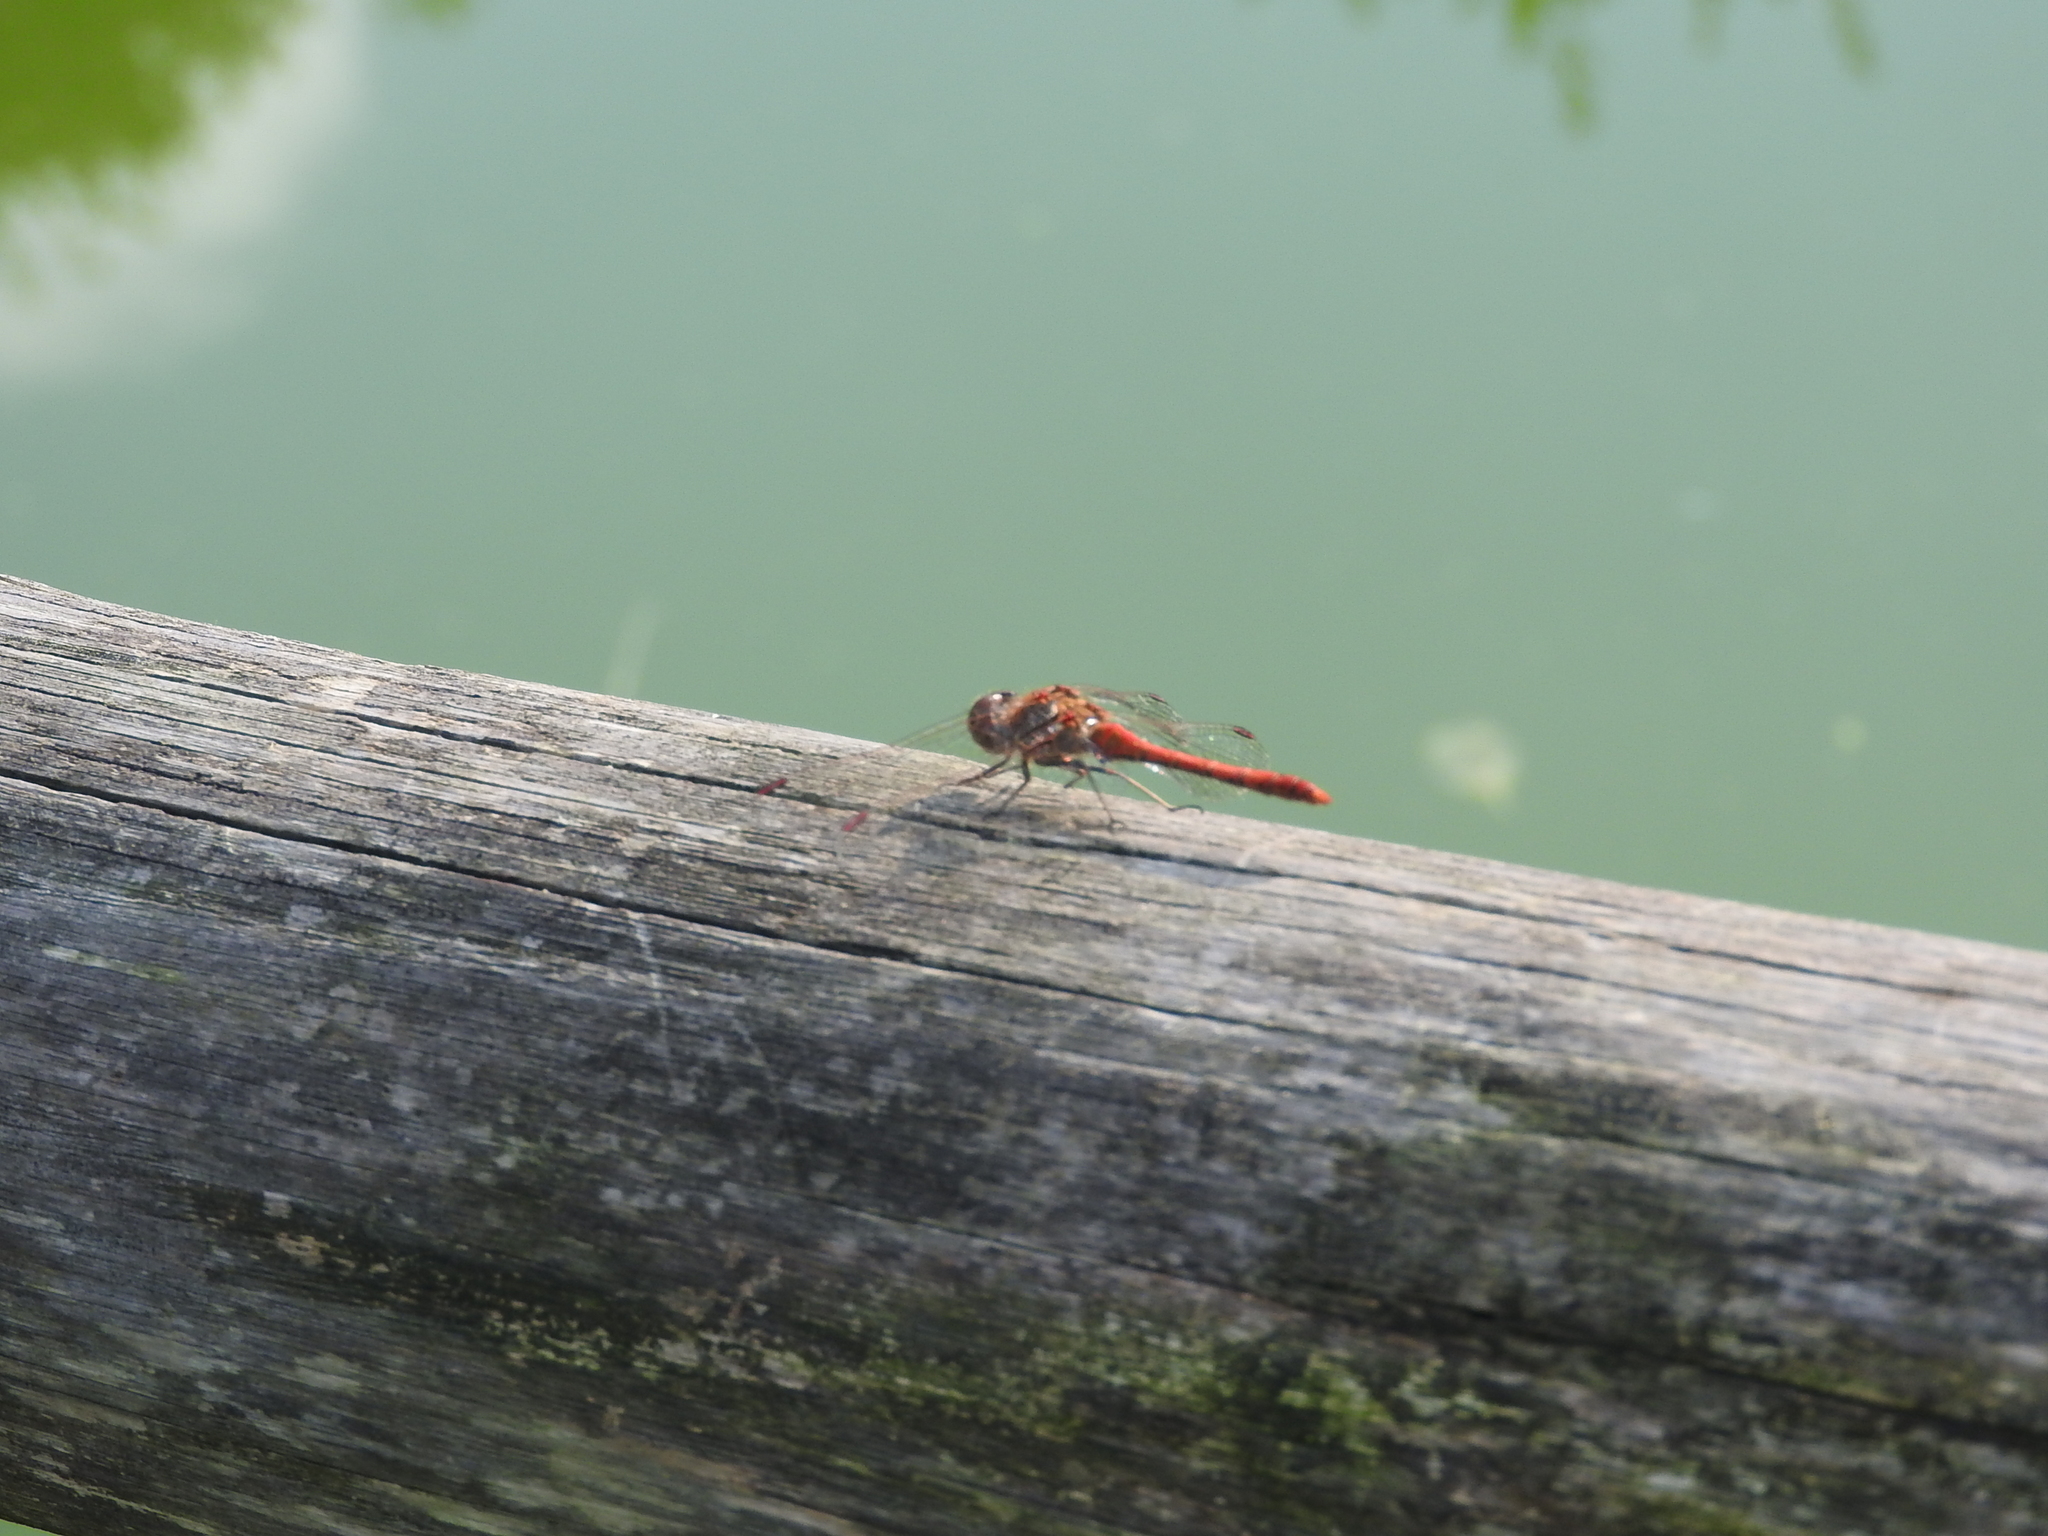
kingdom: Animalia
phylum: Arthropoda
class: Insecta
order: Odonata
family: Libellulidae
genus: Sympetrum
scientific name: Sympetrum striolatum
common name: Common darter
